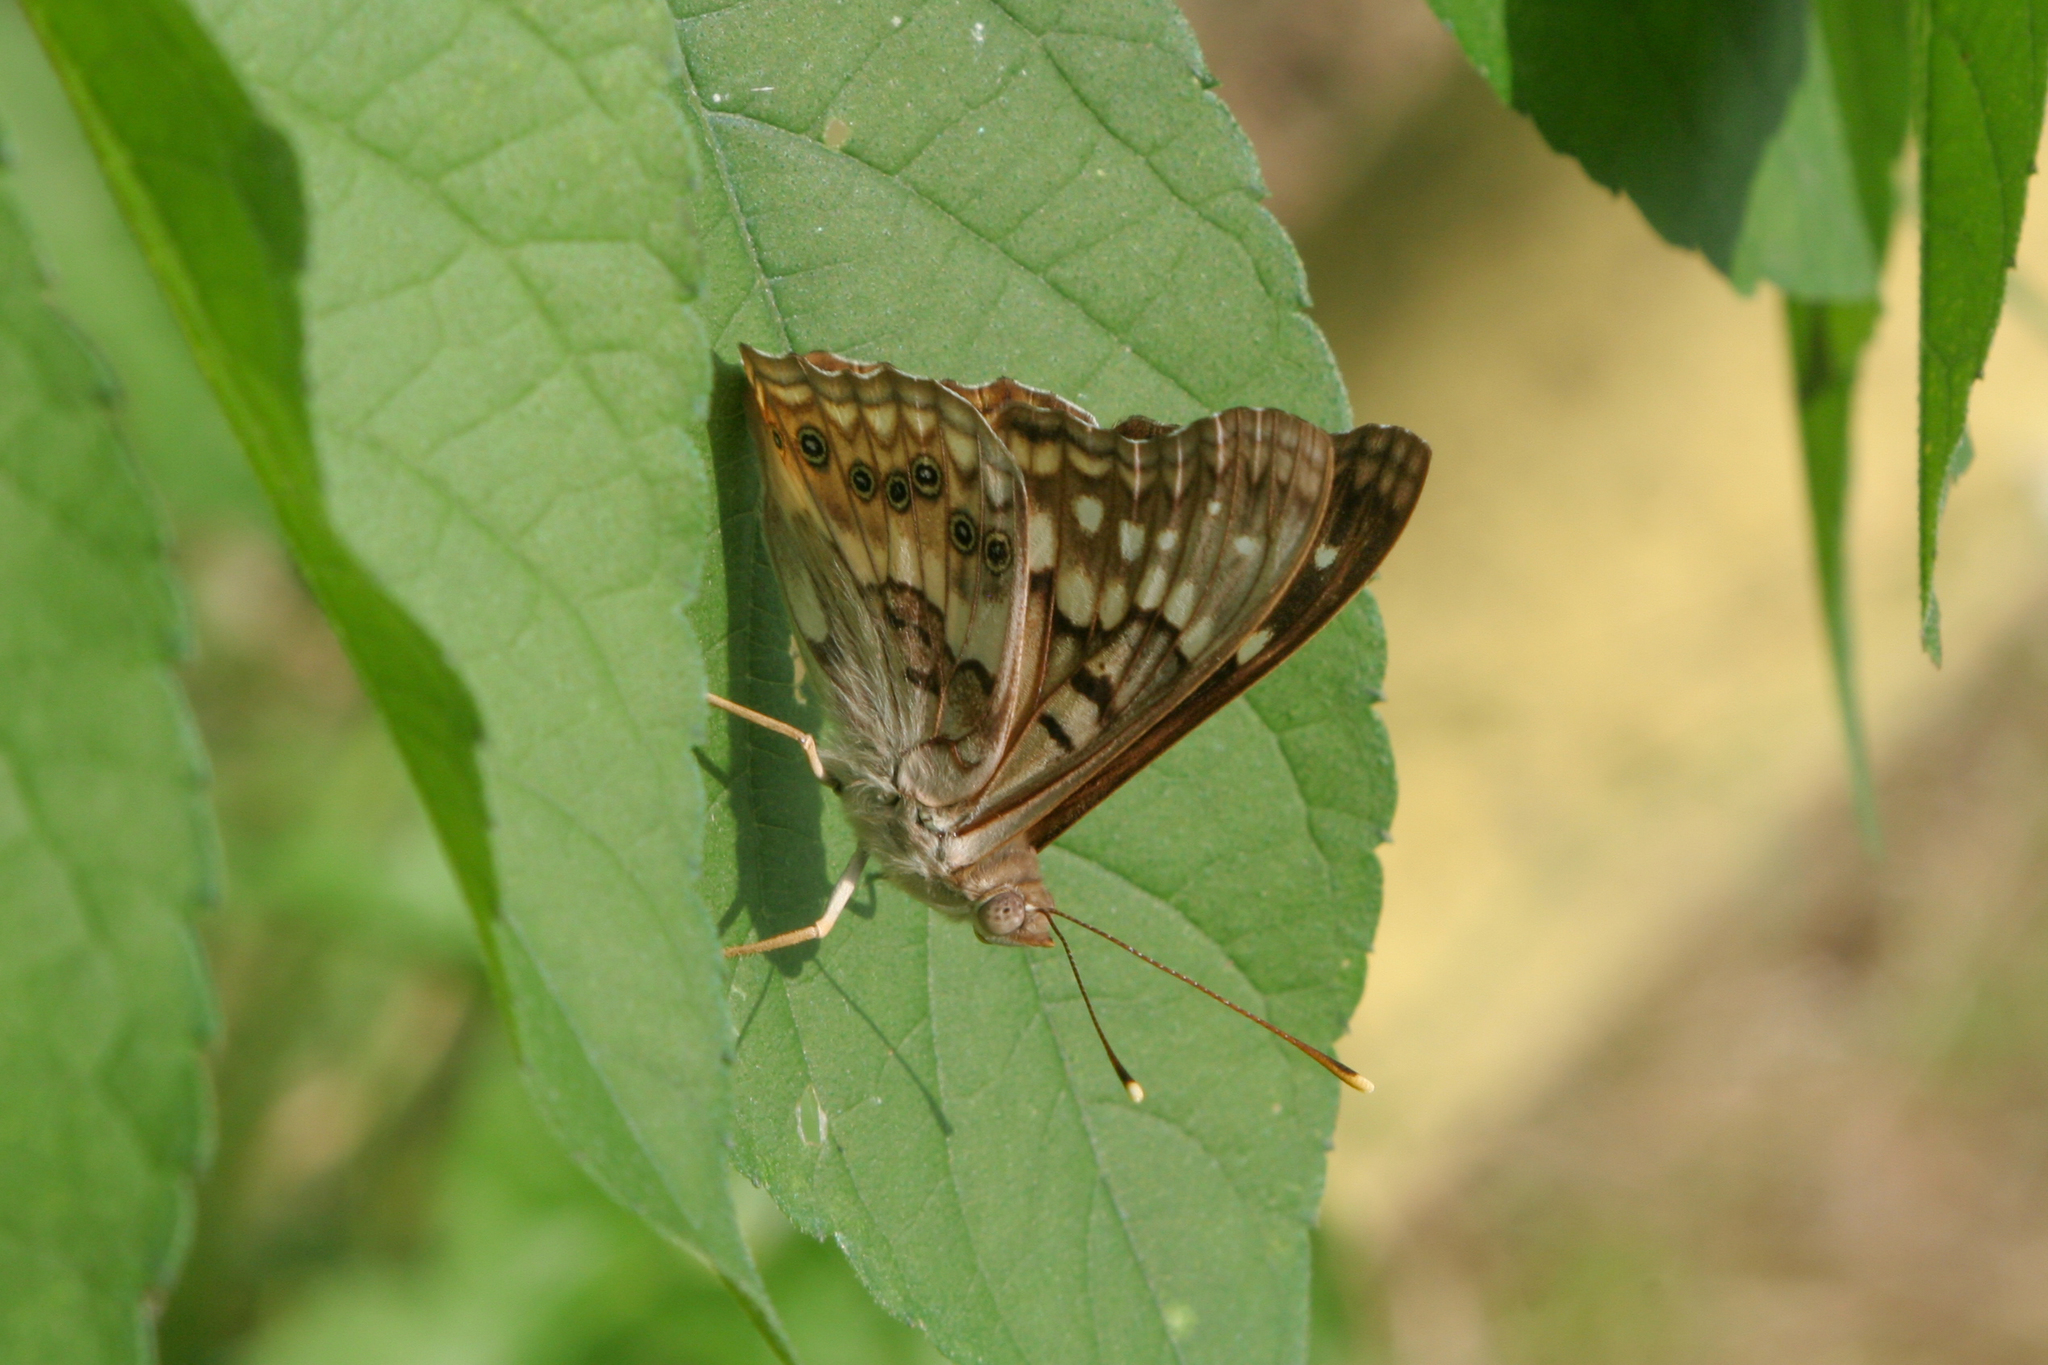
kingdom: Animalia
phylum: Arthropoda
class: Insecta
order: Lepidoptera
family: Nymphalidae
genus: Asterocampa
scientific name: Asterocampa clyton
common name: Tawny emperor
